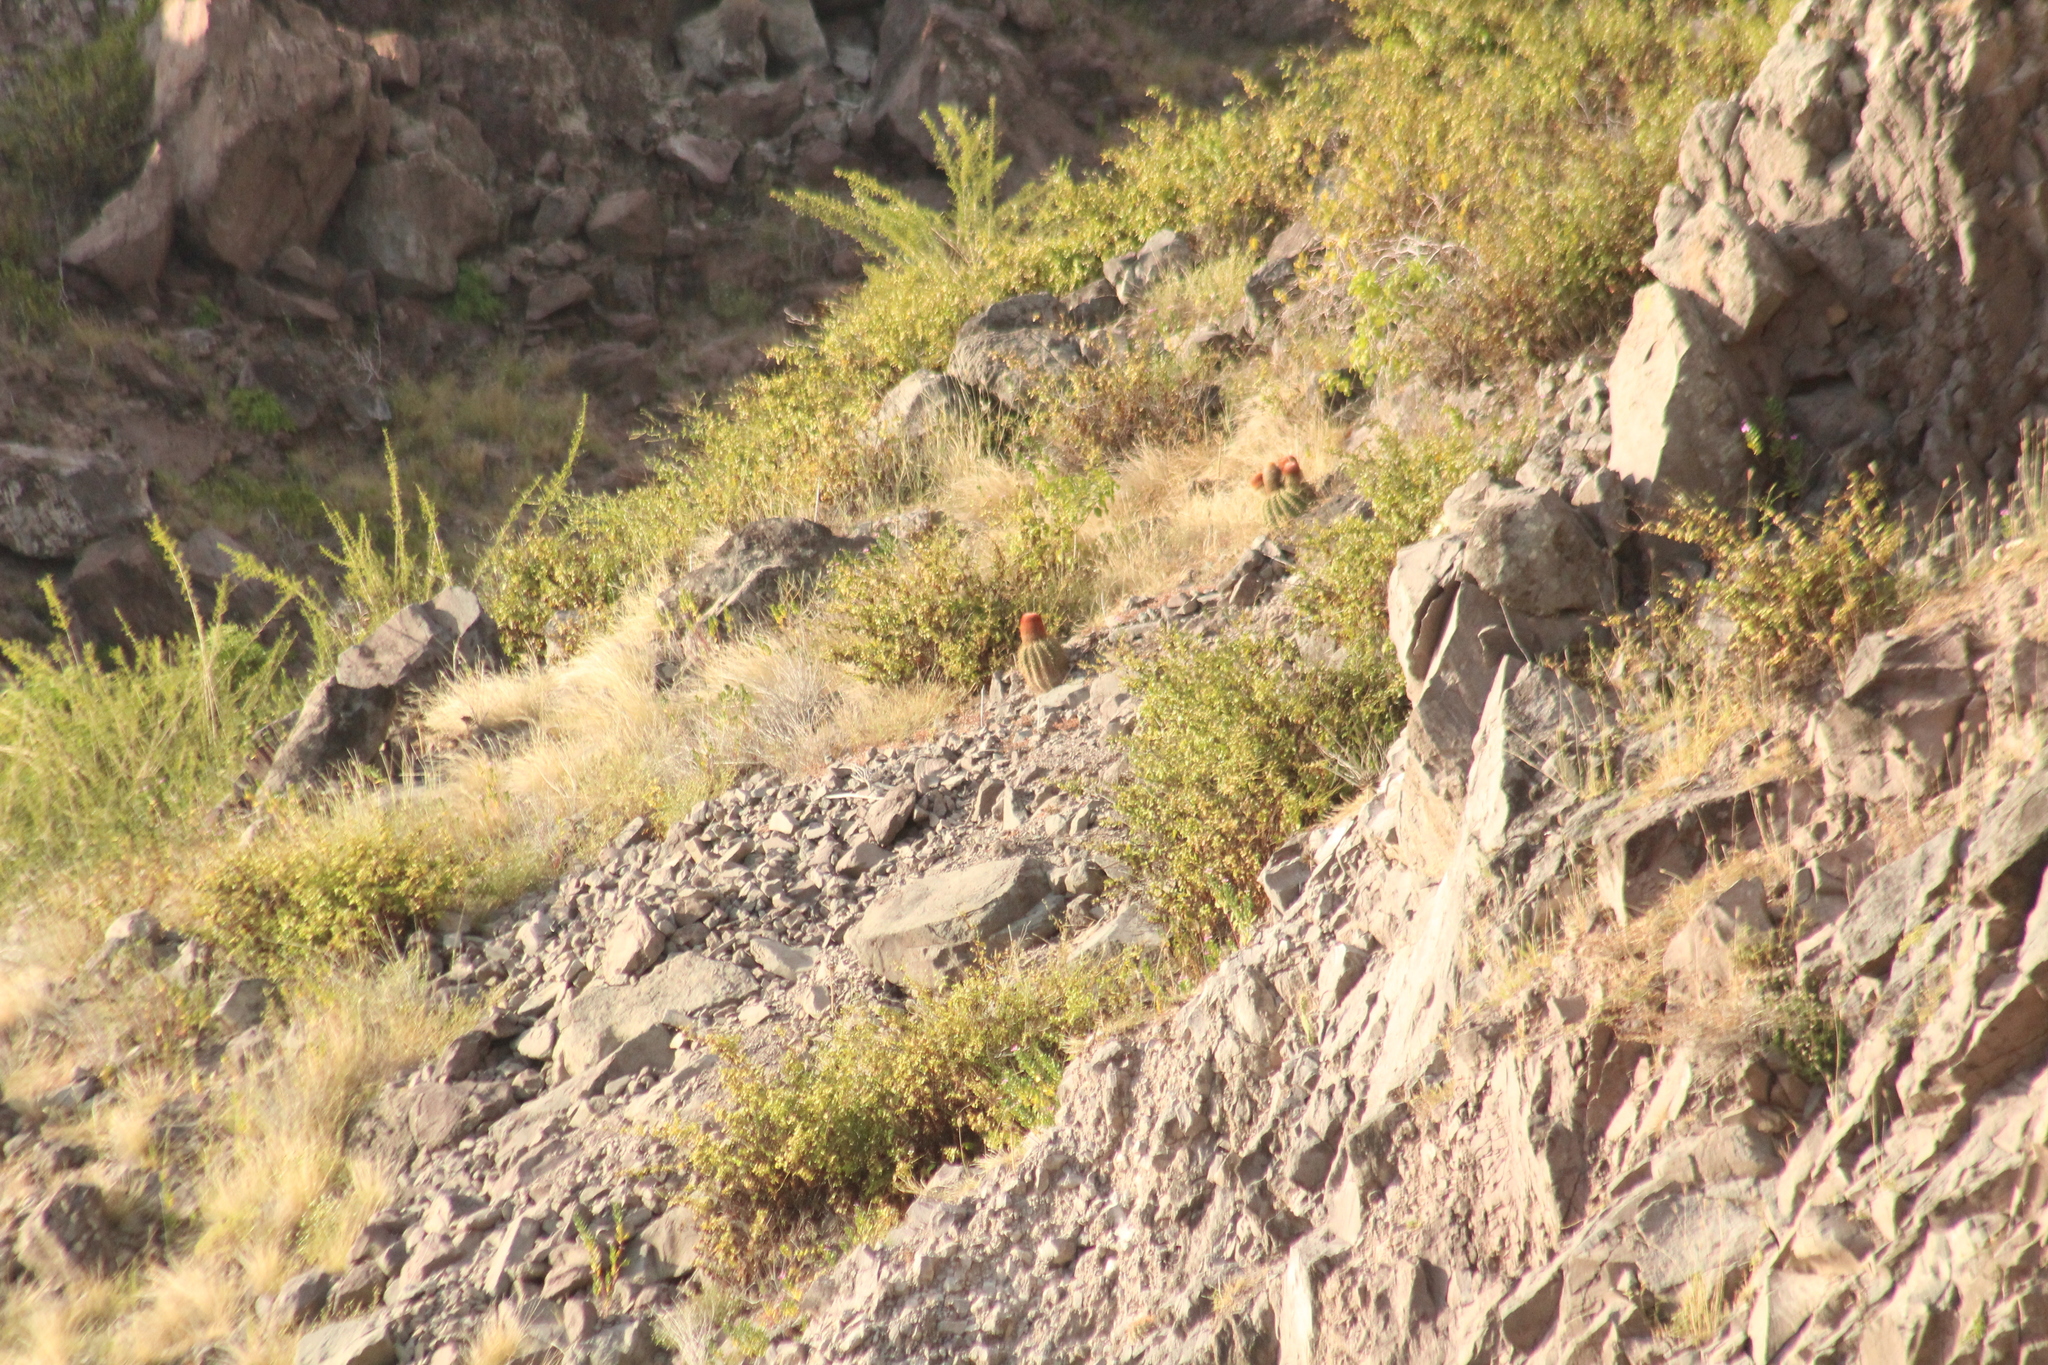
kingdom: Plantae
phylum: Tracheophyta
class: Magnoliopsida
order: Caryophyllales
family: Cactaceae
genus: Melocactus
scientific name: Melocactus intortus
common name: Barrel cactus
